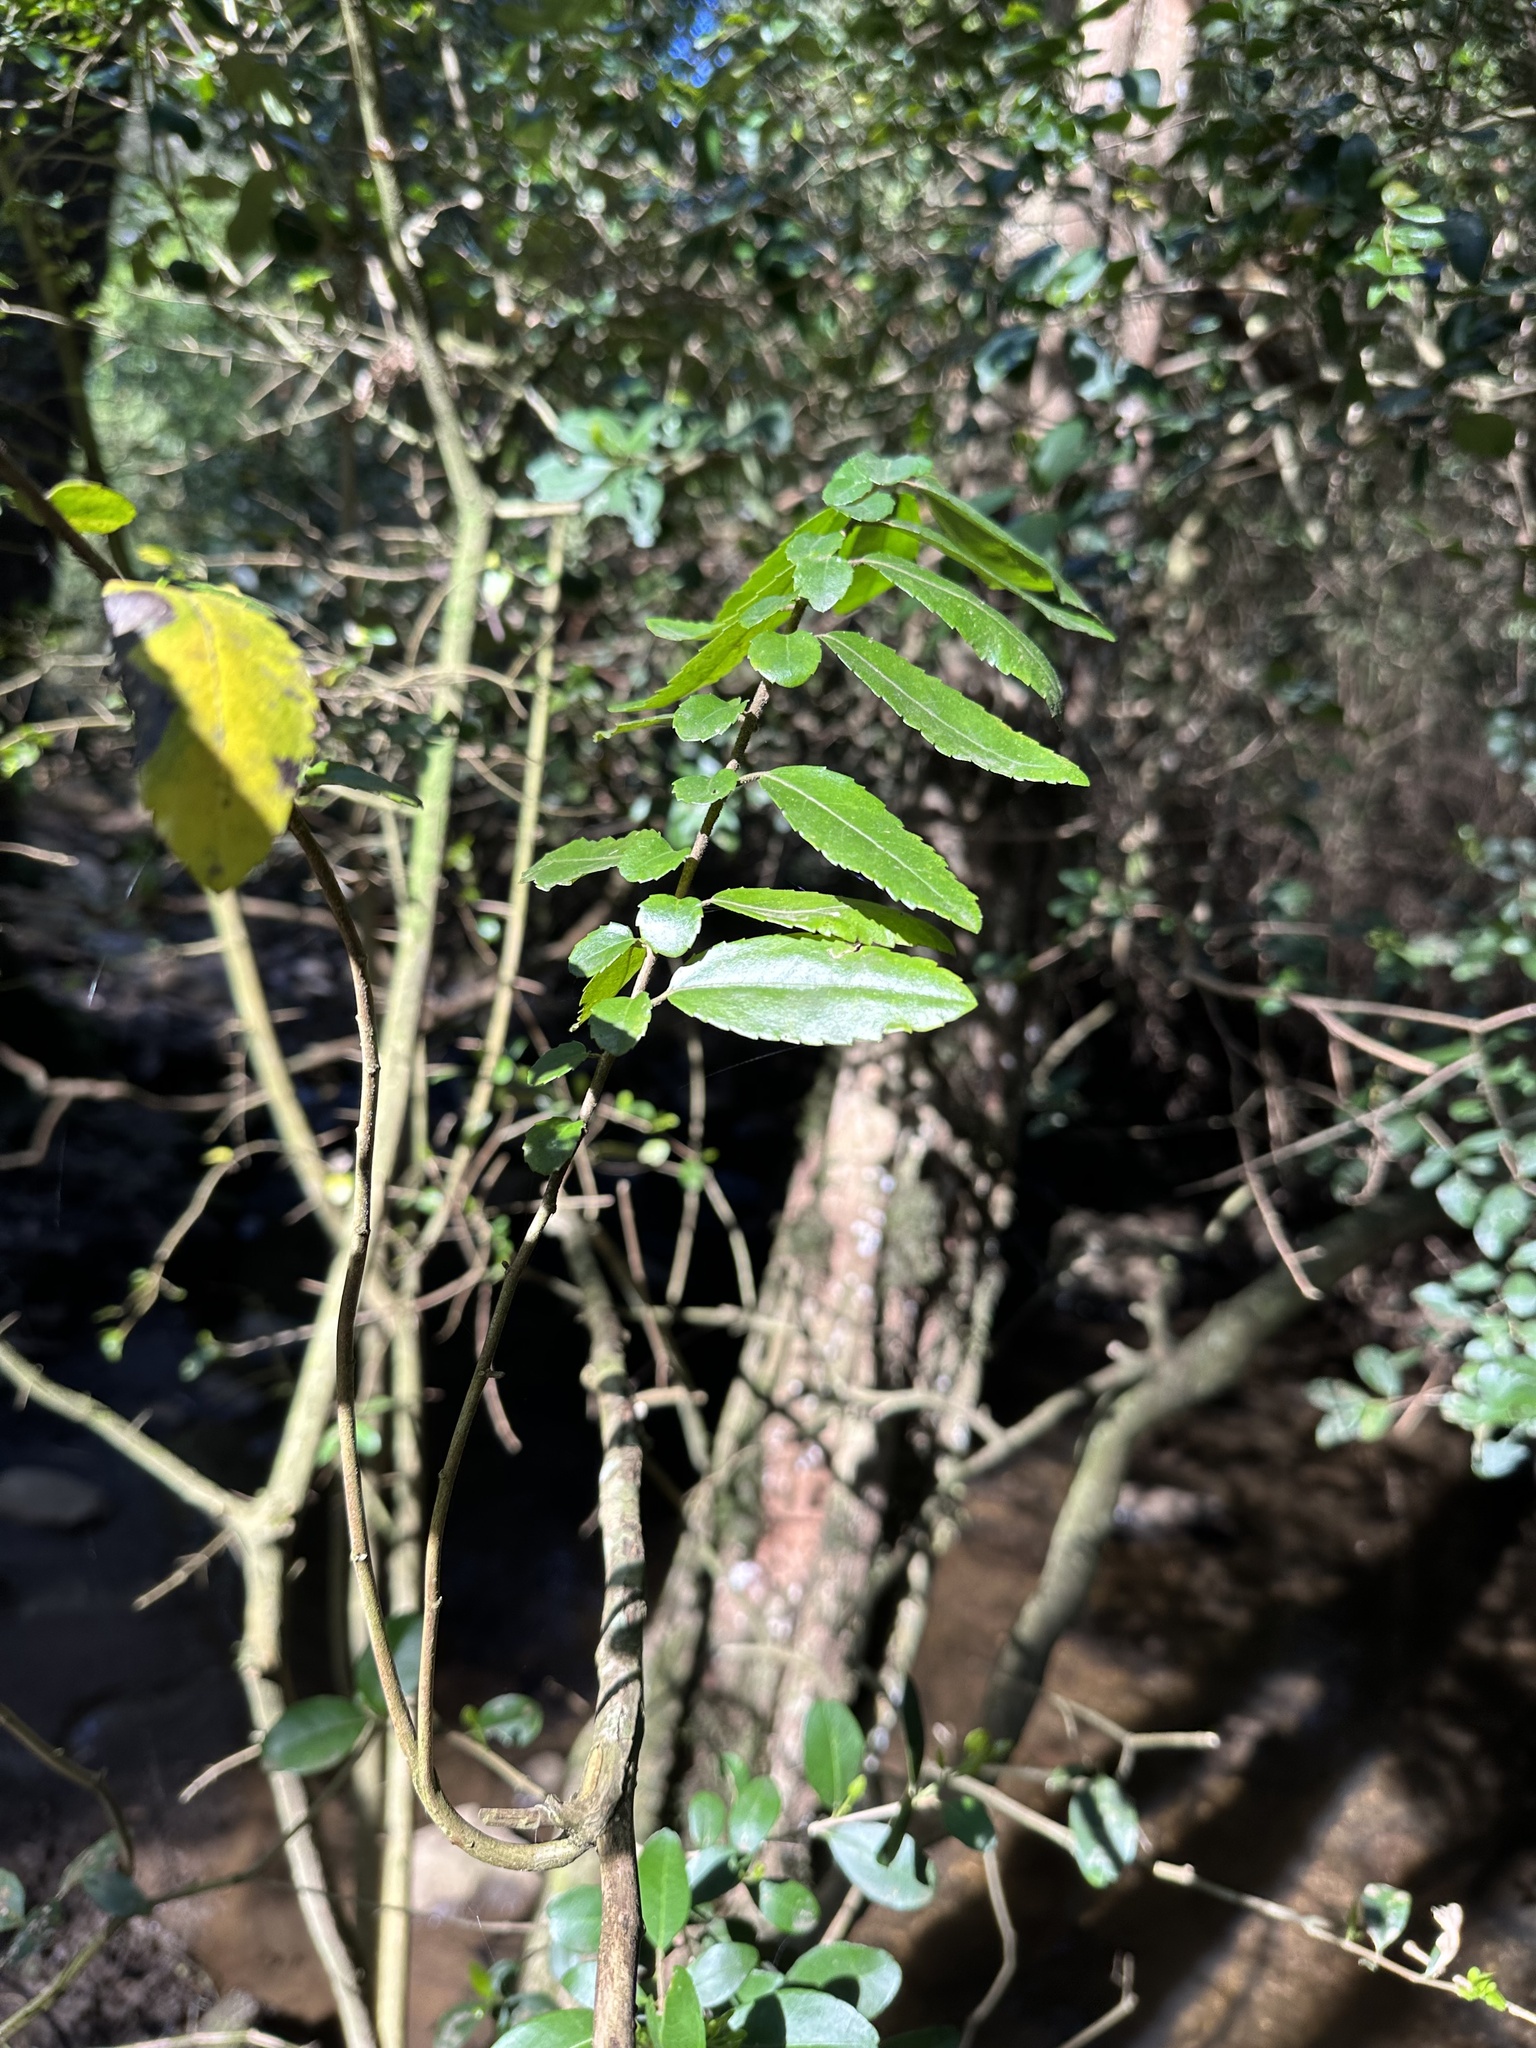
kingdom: Plantae
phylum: Tracheophyta
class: Magnoliopsida
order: Malpighiales
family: Salicaceae
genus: Azara
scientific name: Azara serrata
